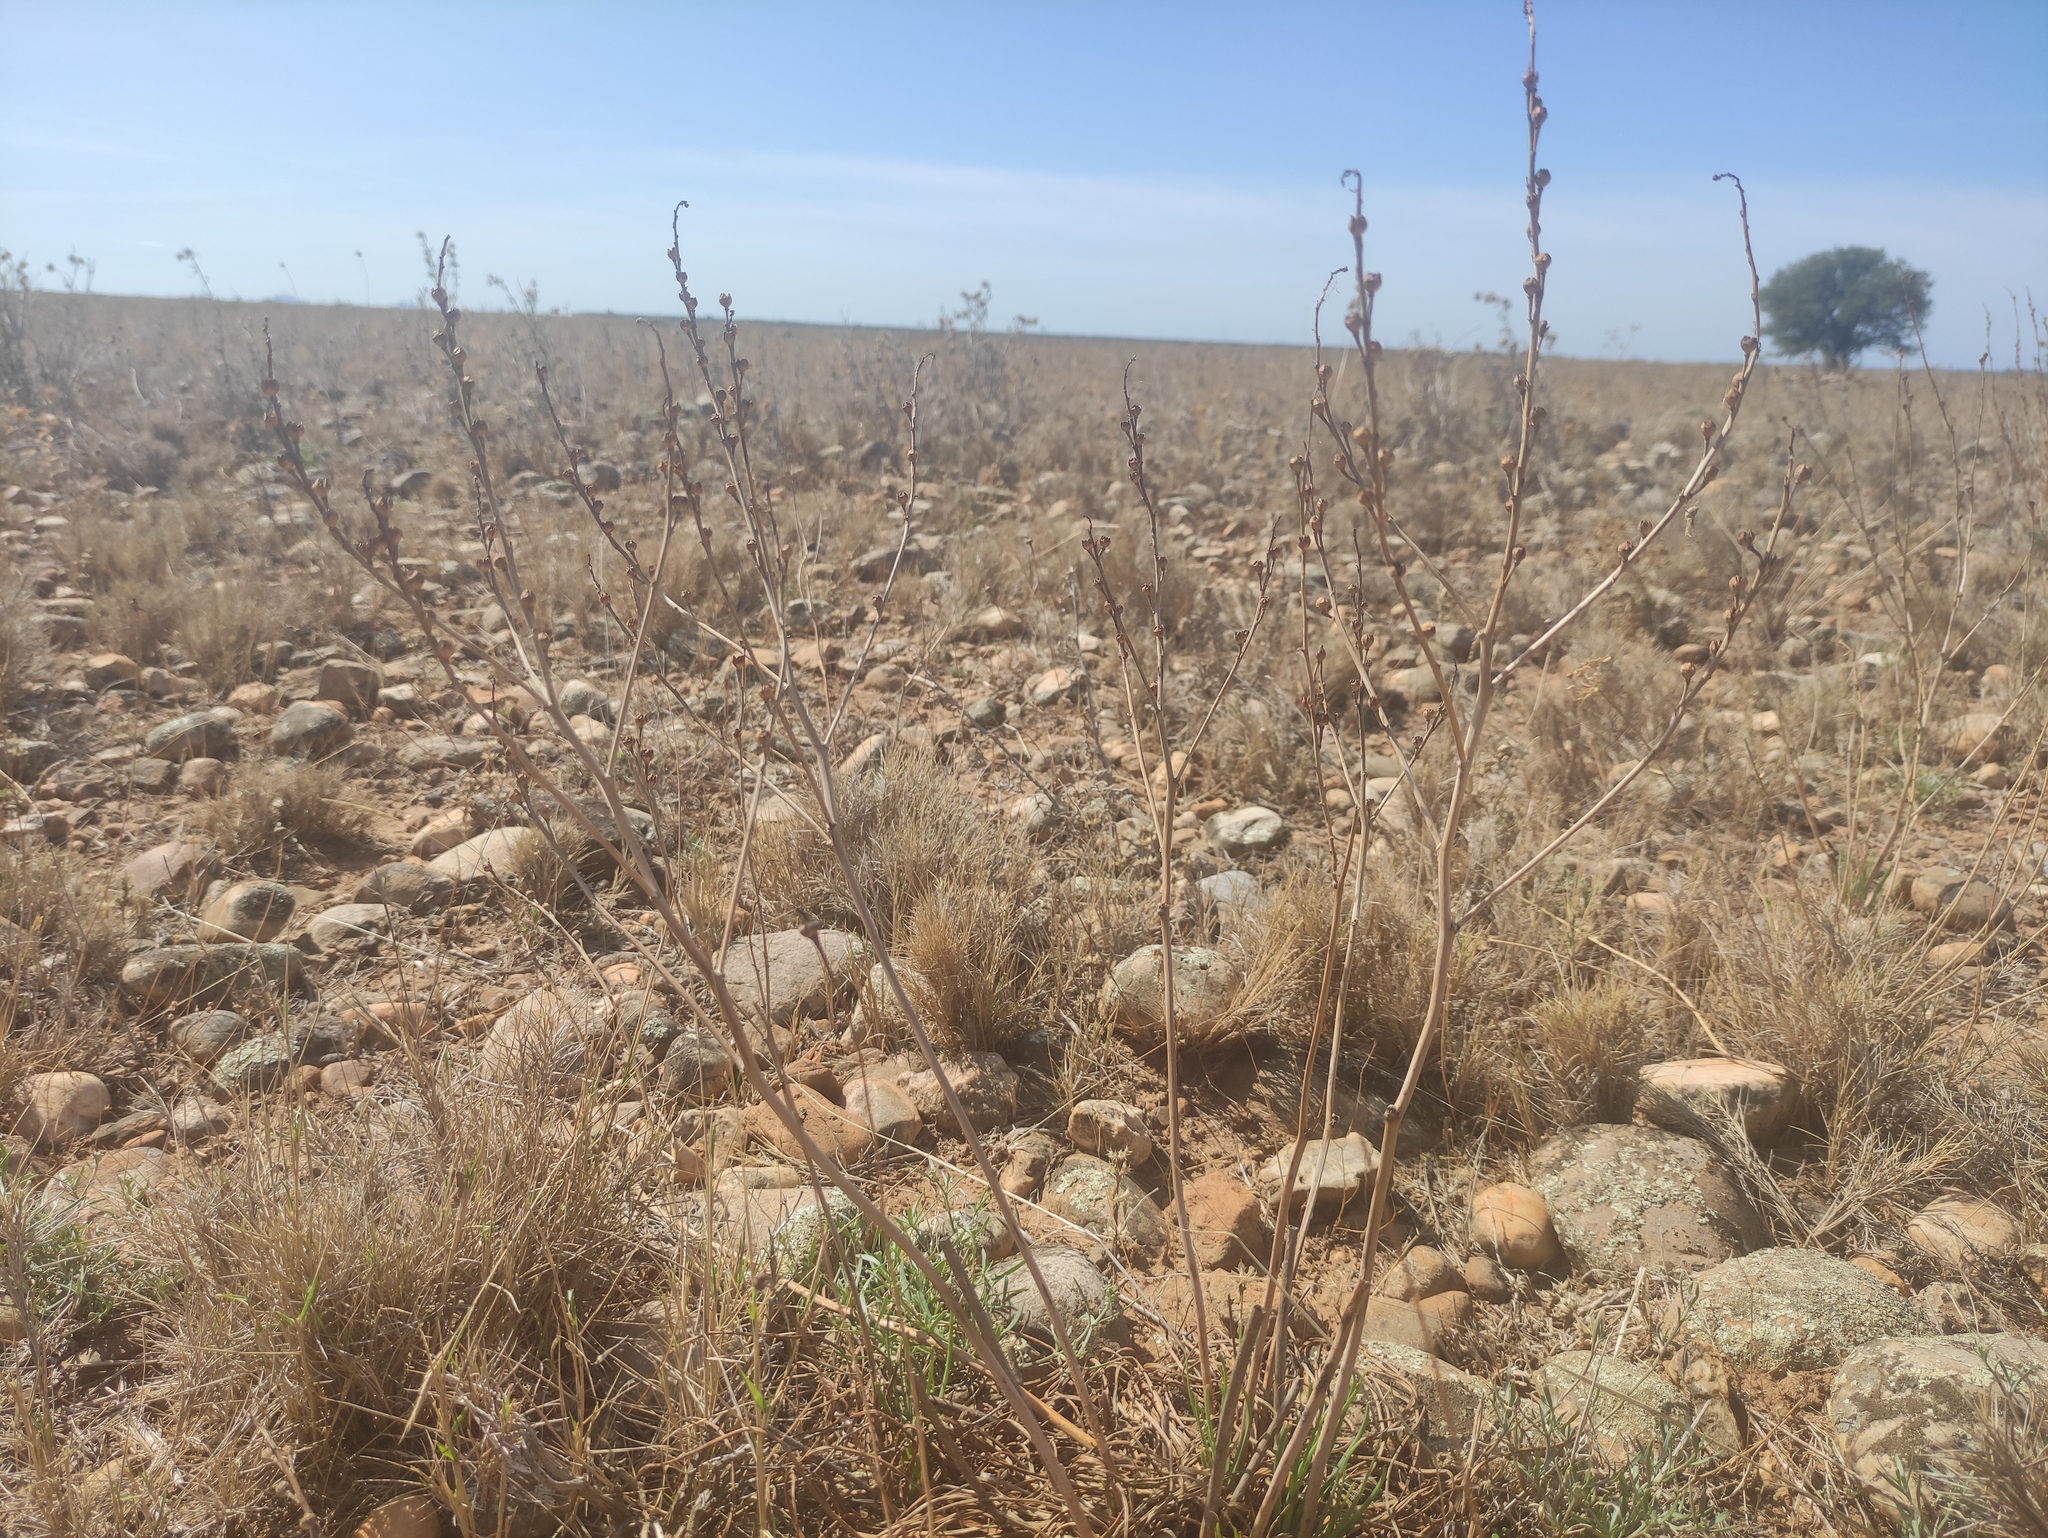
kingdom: Plantae
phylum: Tracheophyta
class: Liliopsida
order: Asparagales
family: Asphodelaceae
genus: Asphodelus
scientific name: Asphodelus ayardii
